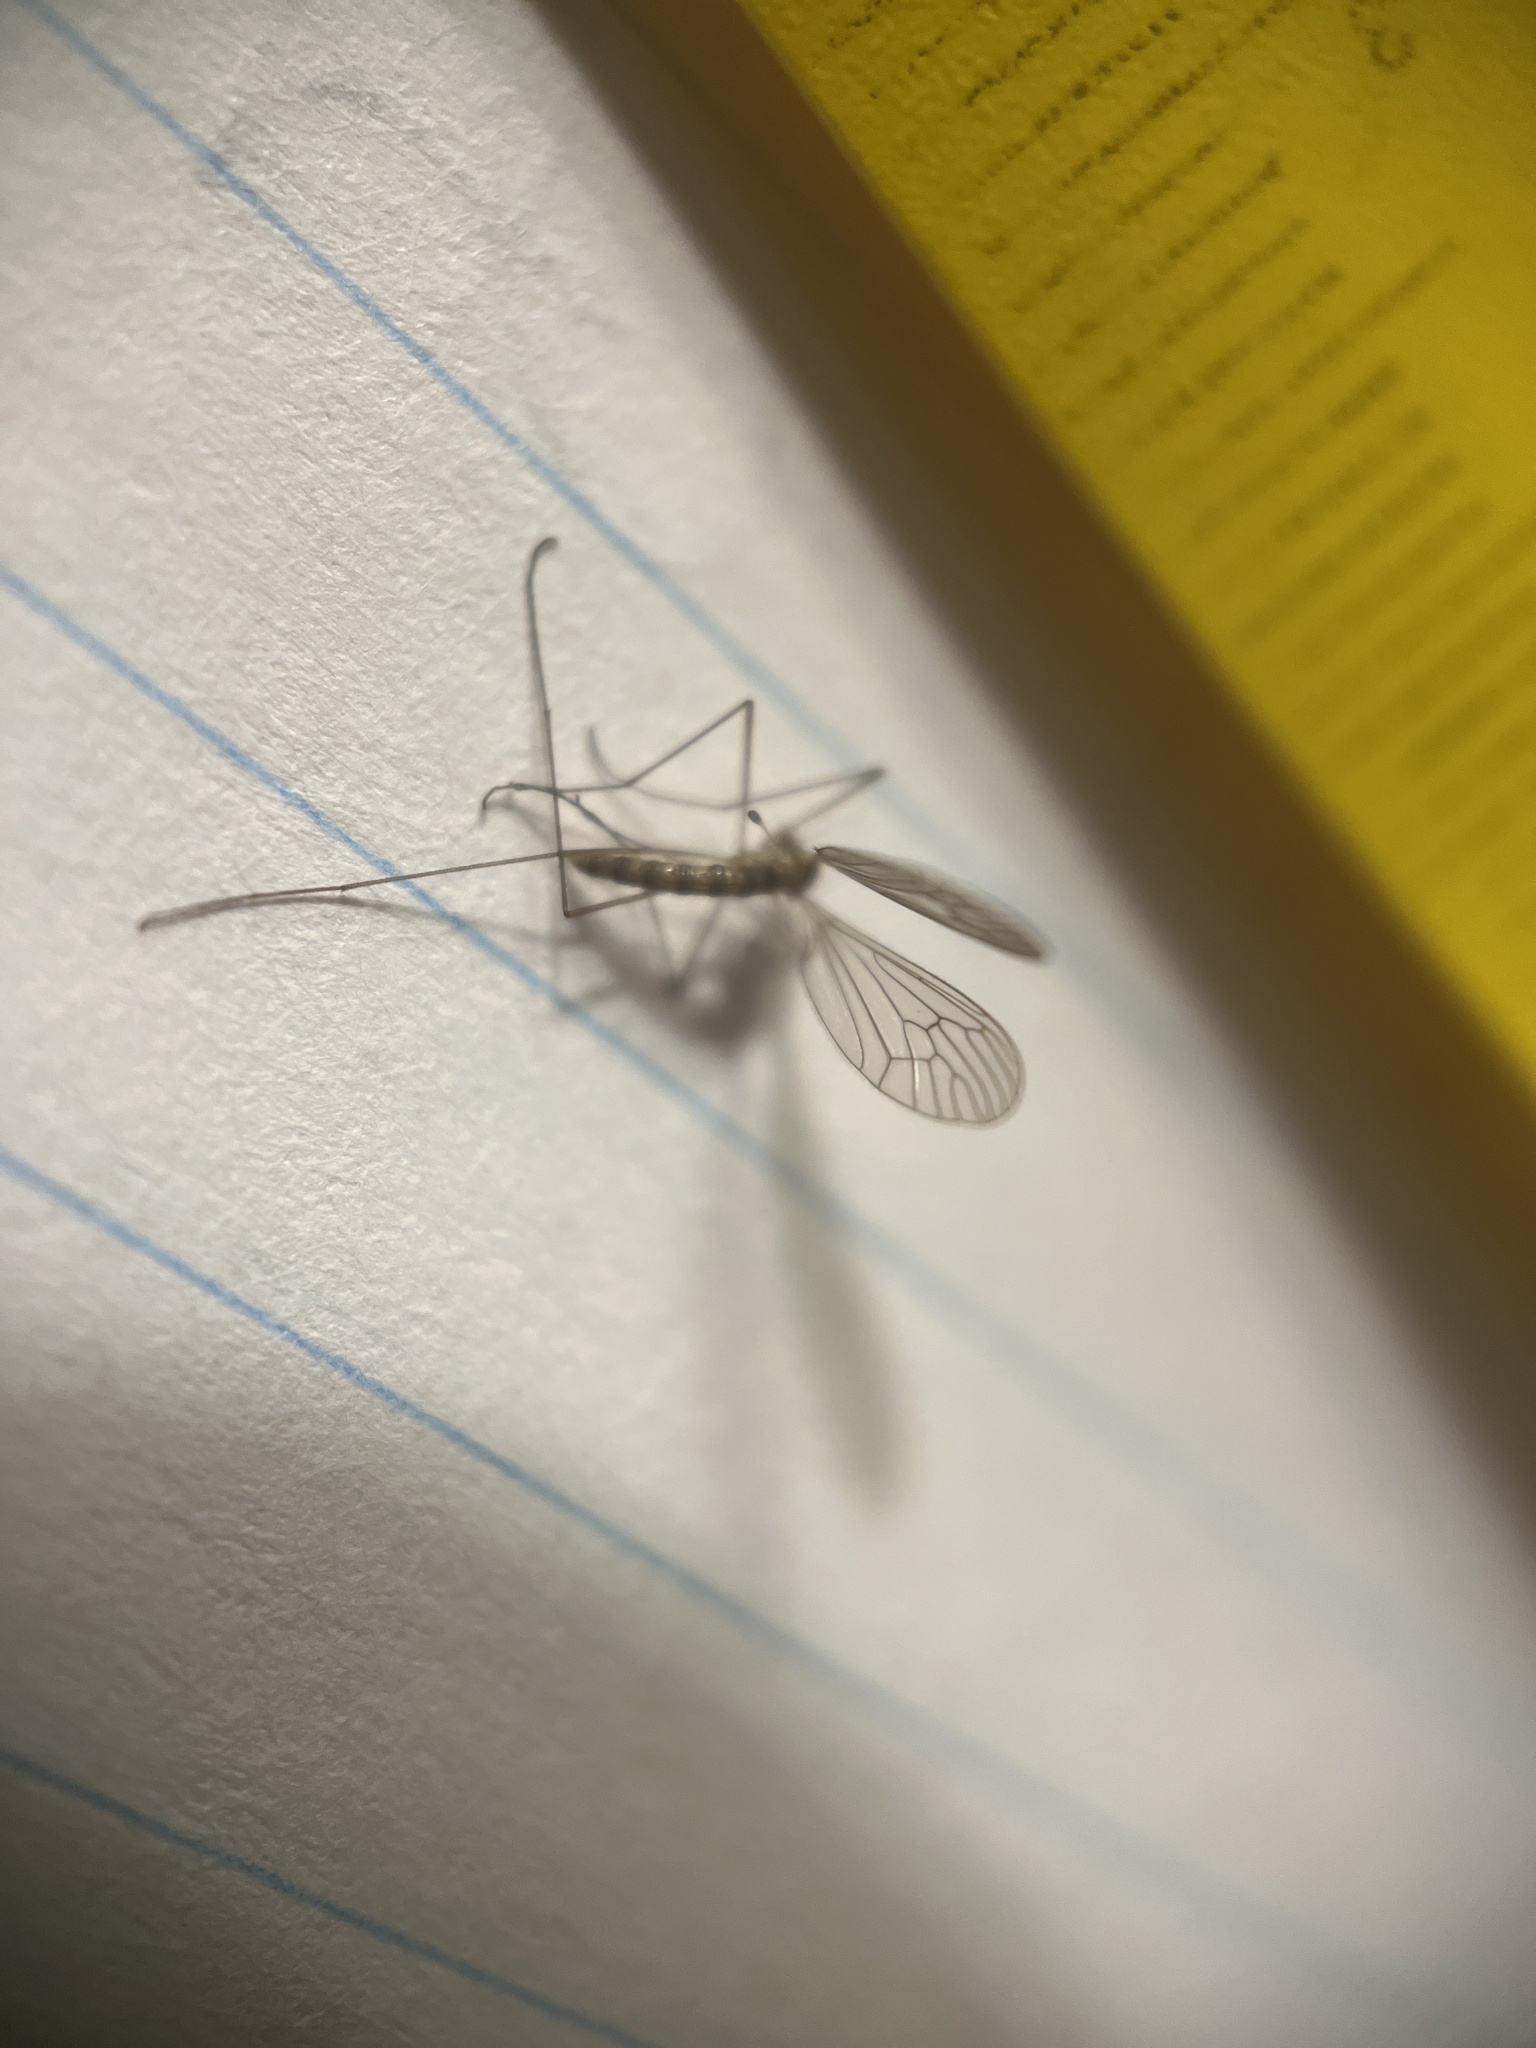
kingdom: Animalia
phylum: Arthropoda
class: Insecta
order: Diptera
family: Trichoceridae
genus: Trichocera
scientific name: Trichocera annulata
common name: Winter gnat
